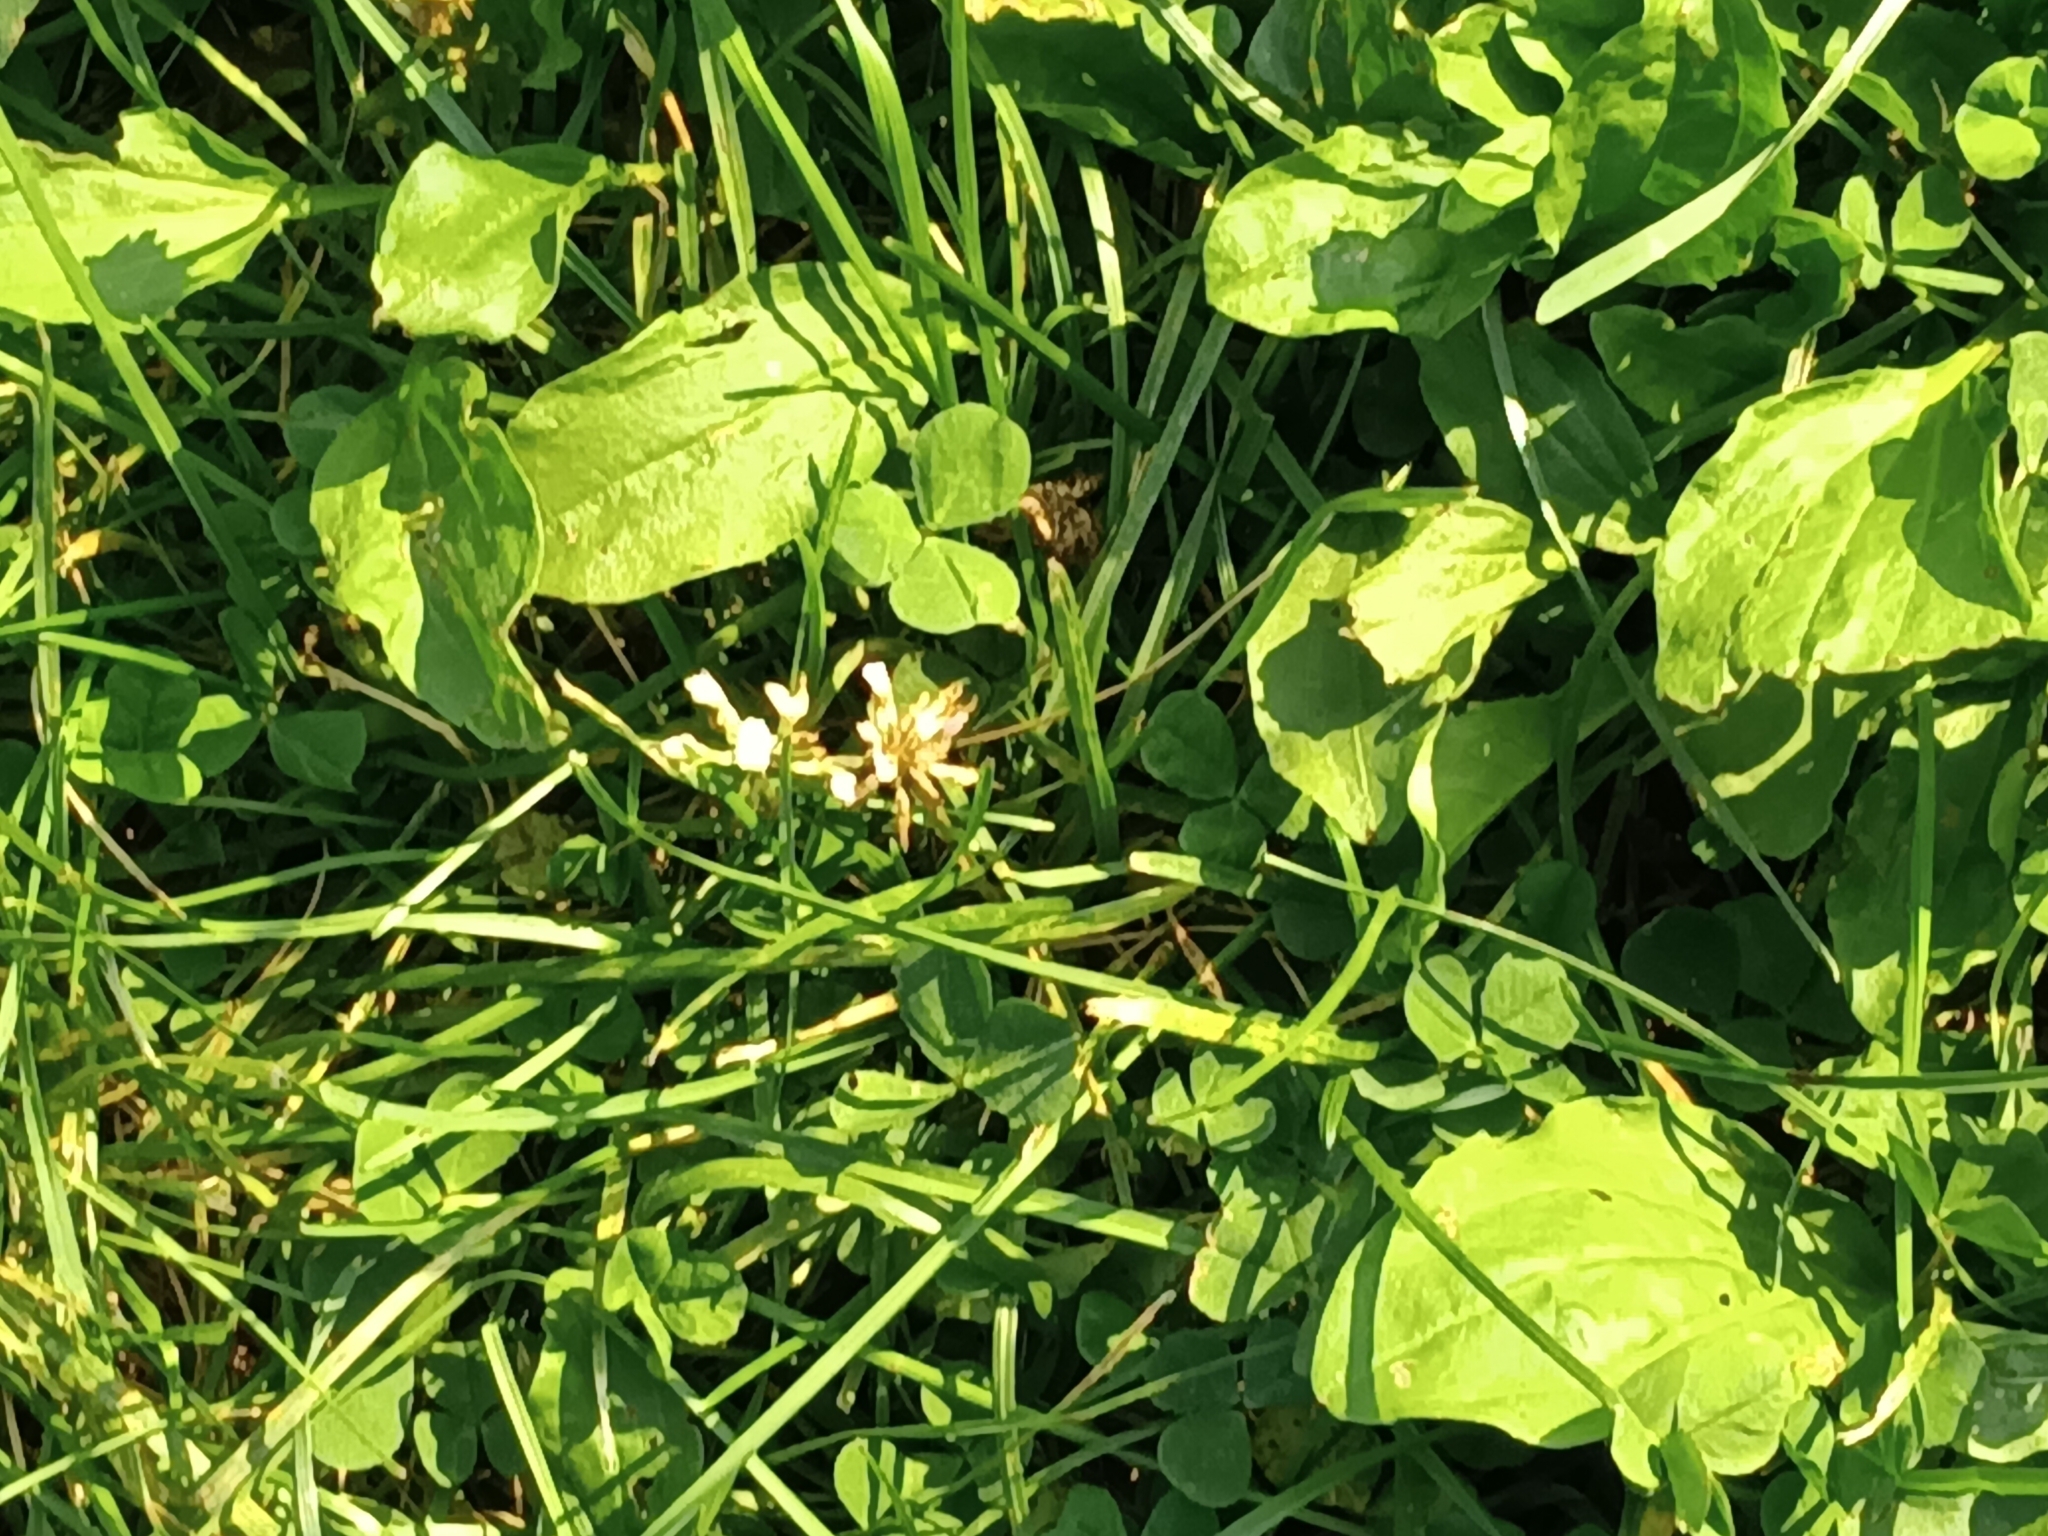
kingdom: Plantae
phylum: Tracheophyta
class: Magnoliopsida
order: Fabales
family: Fabaceae
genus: Trifolium
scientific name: Trifolium repens
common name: White clover
